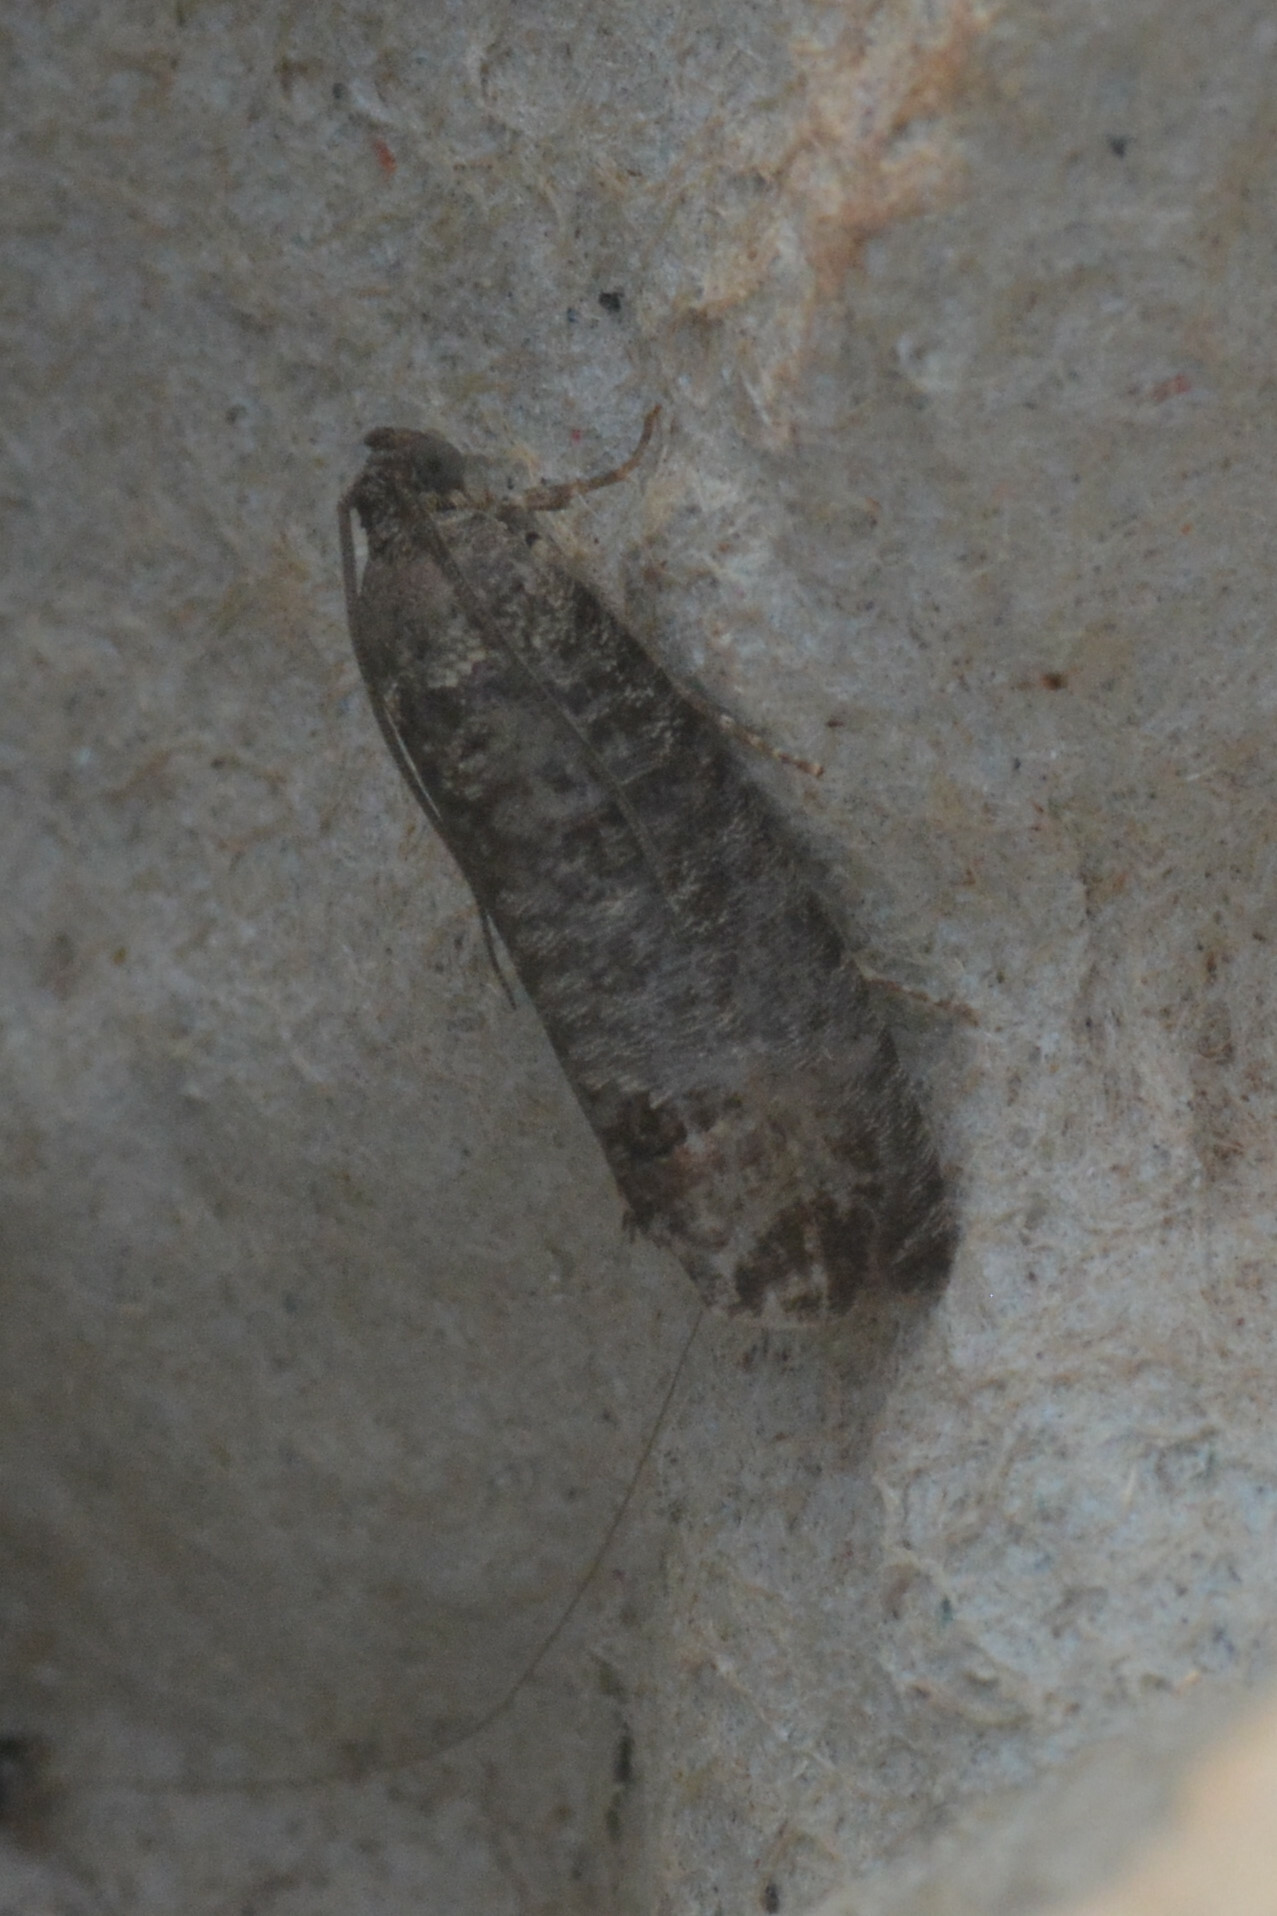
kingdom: Animalia
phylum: Arthropoda
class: Insecta
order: Lepidoptera
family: Tortricidae
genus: Cydia
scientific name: Cydia pomonella
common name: Codling moth
